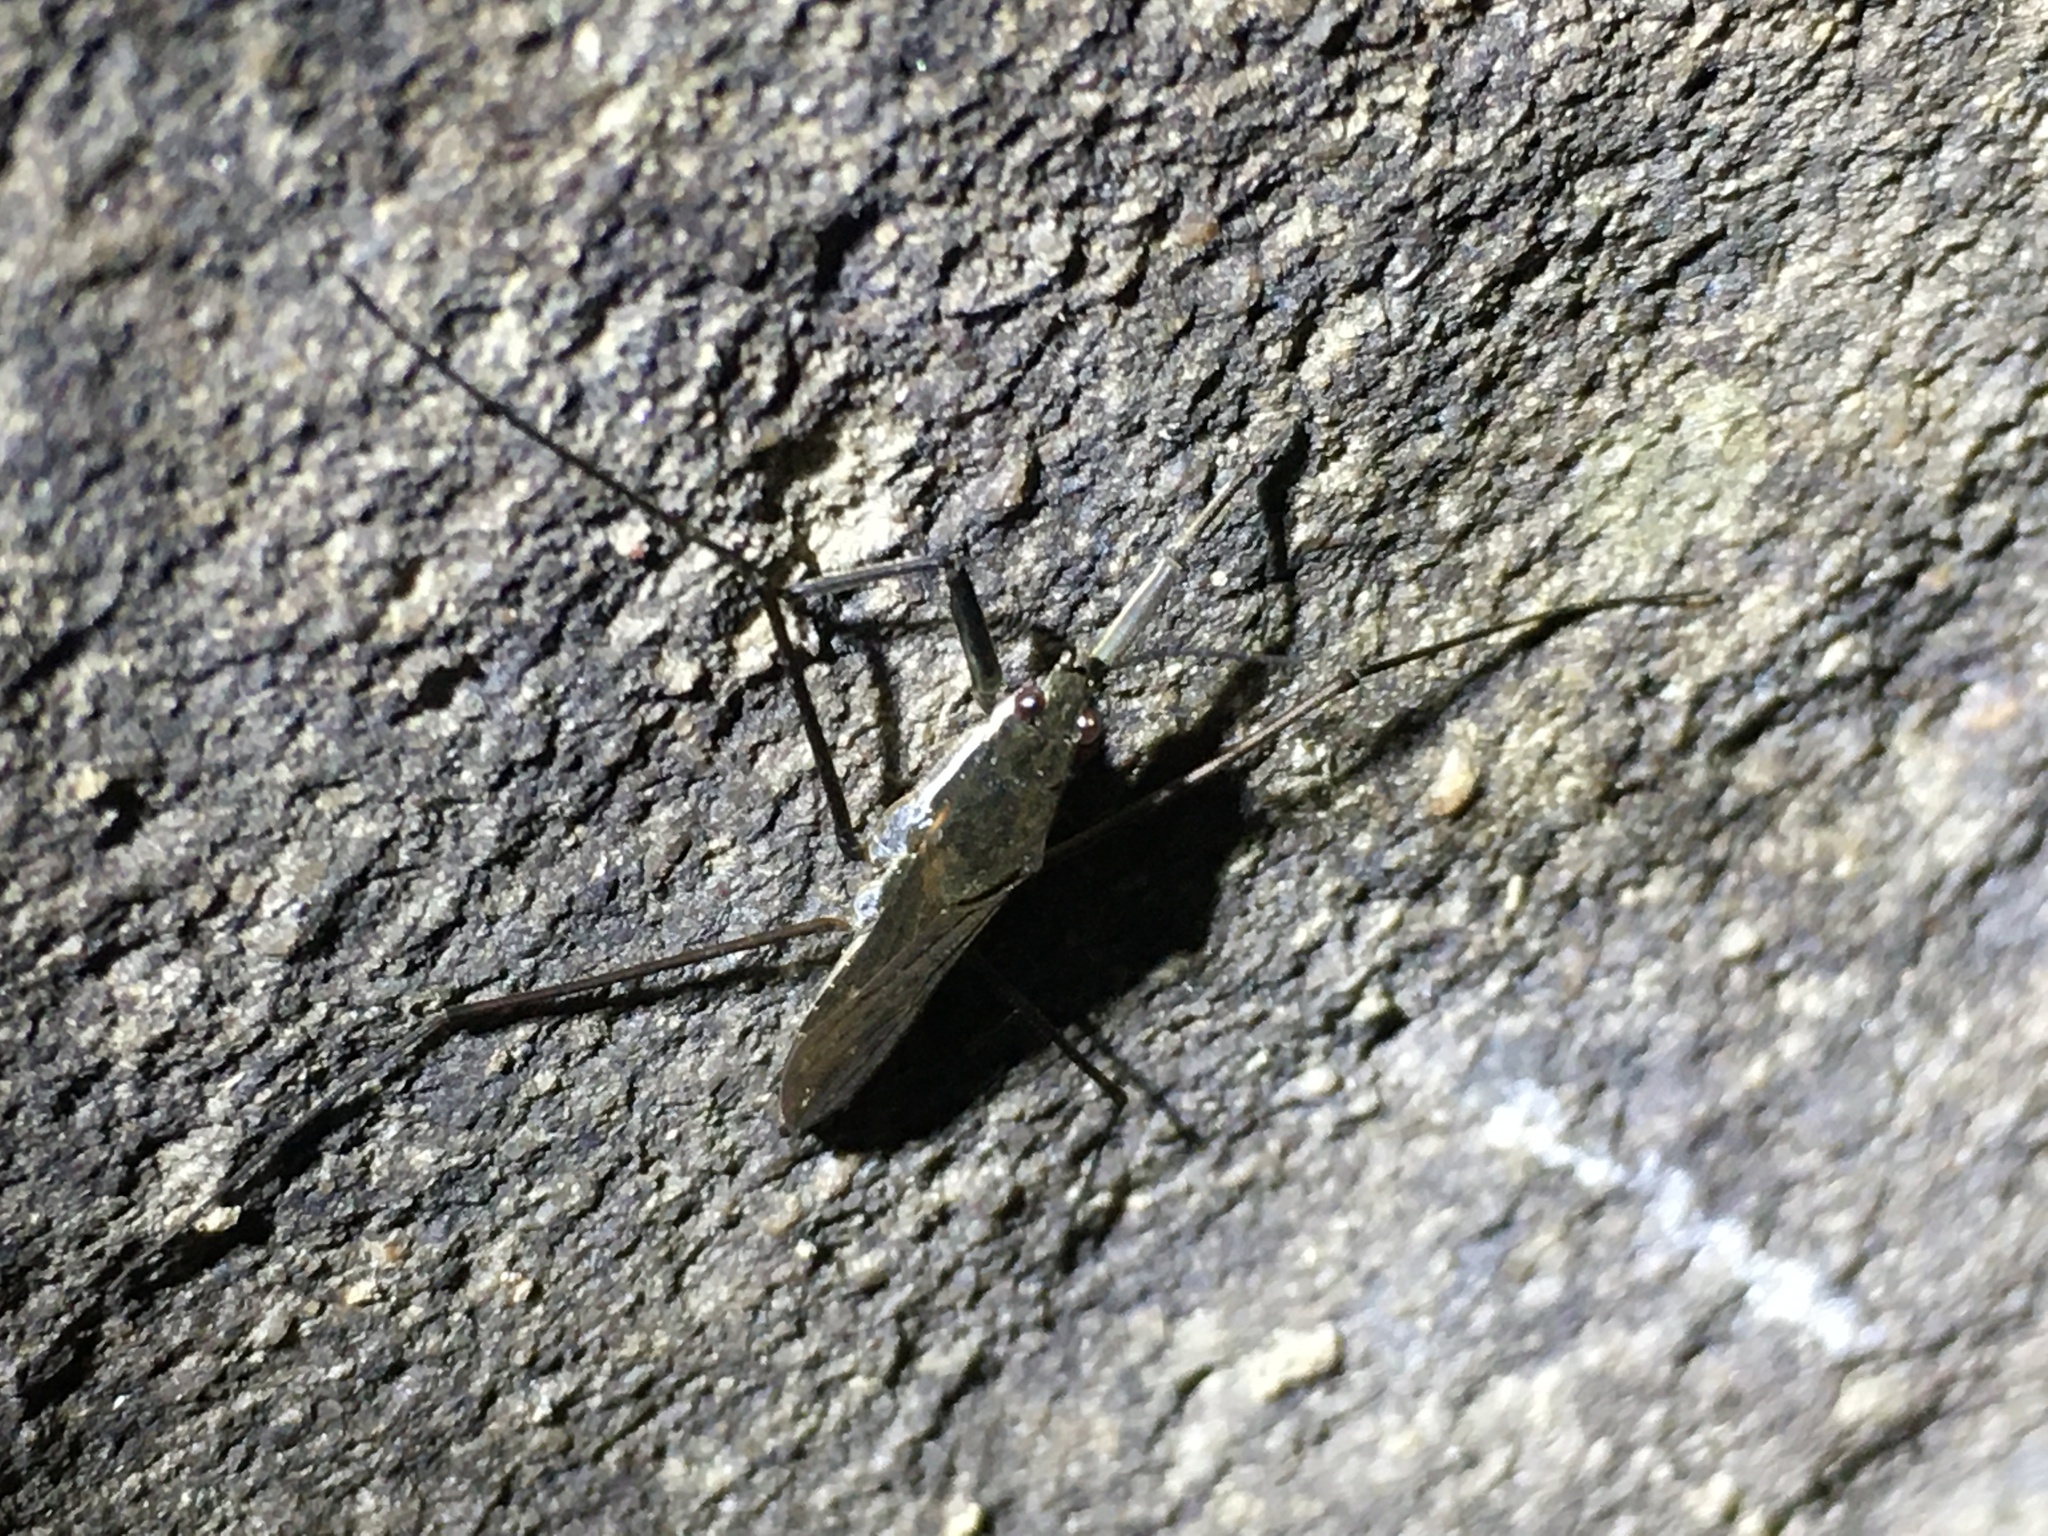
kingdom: Animalia
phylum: Arthropoda
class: Insecta
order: Hemiptera
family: Gerridae
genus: Aquarius
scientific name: Aquarius remigis
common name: Common water strider
